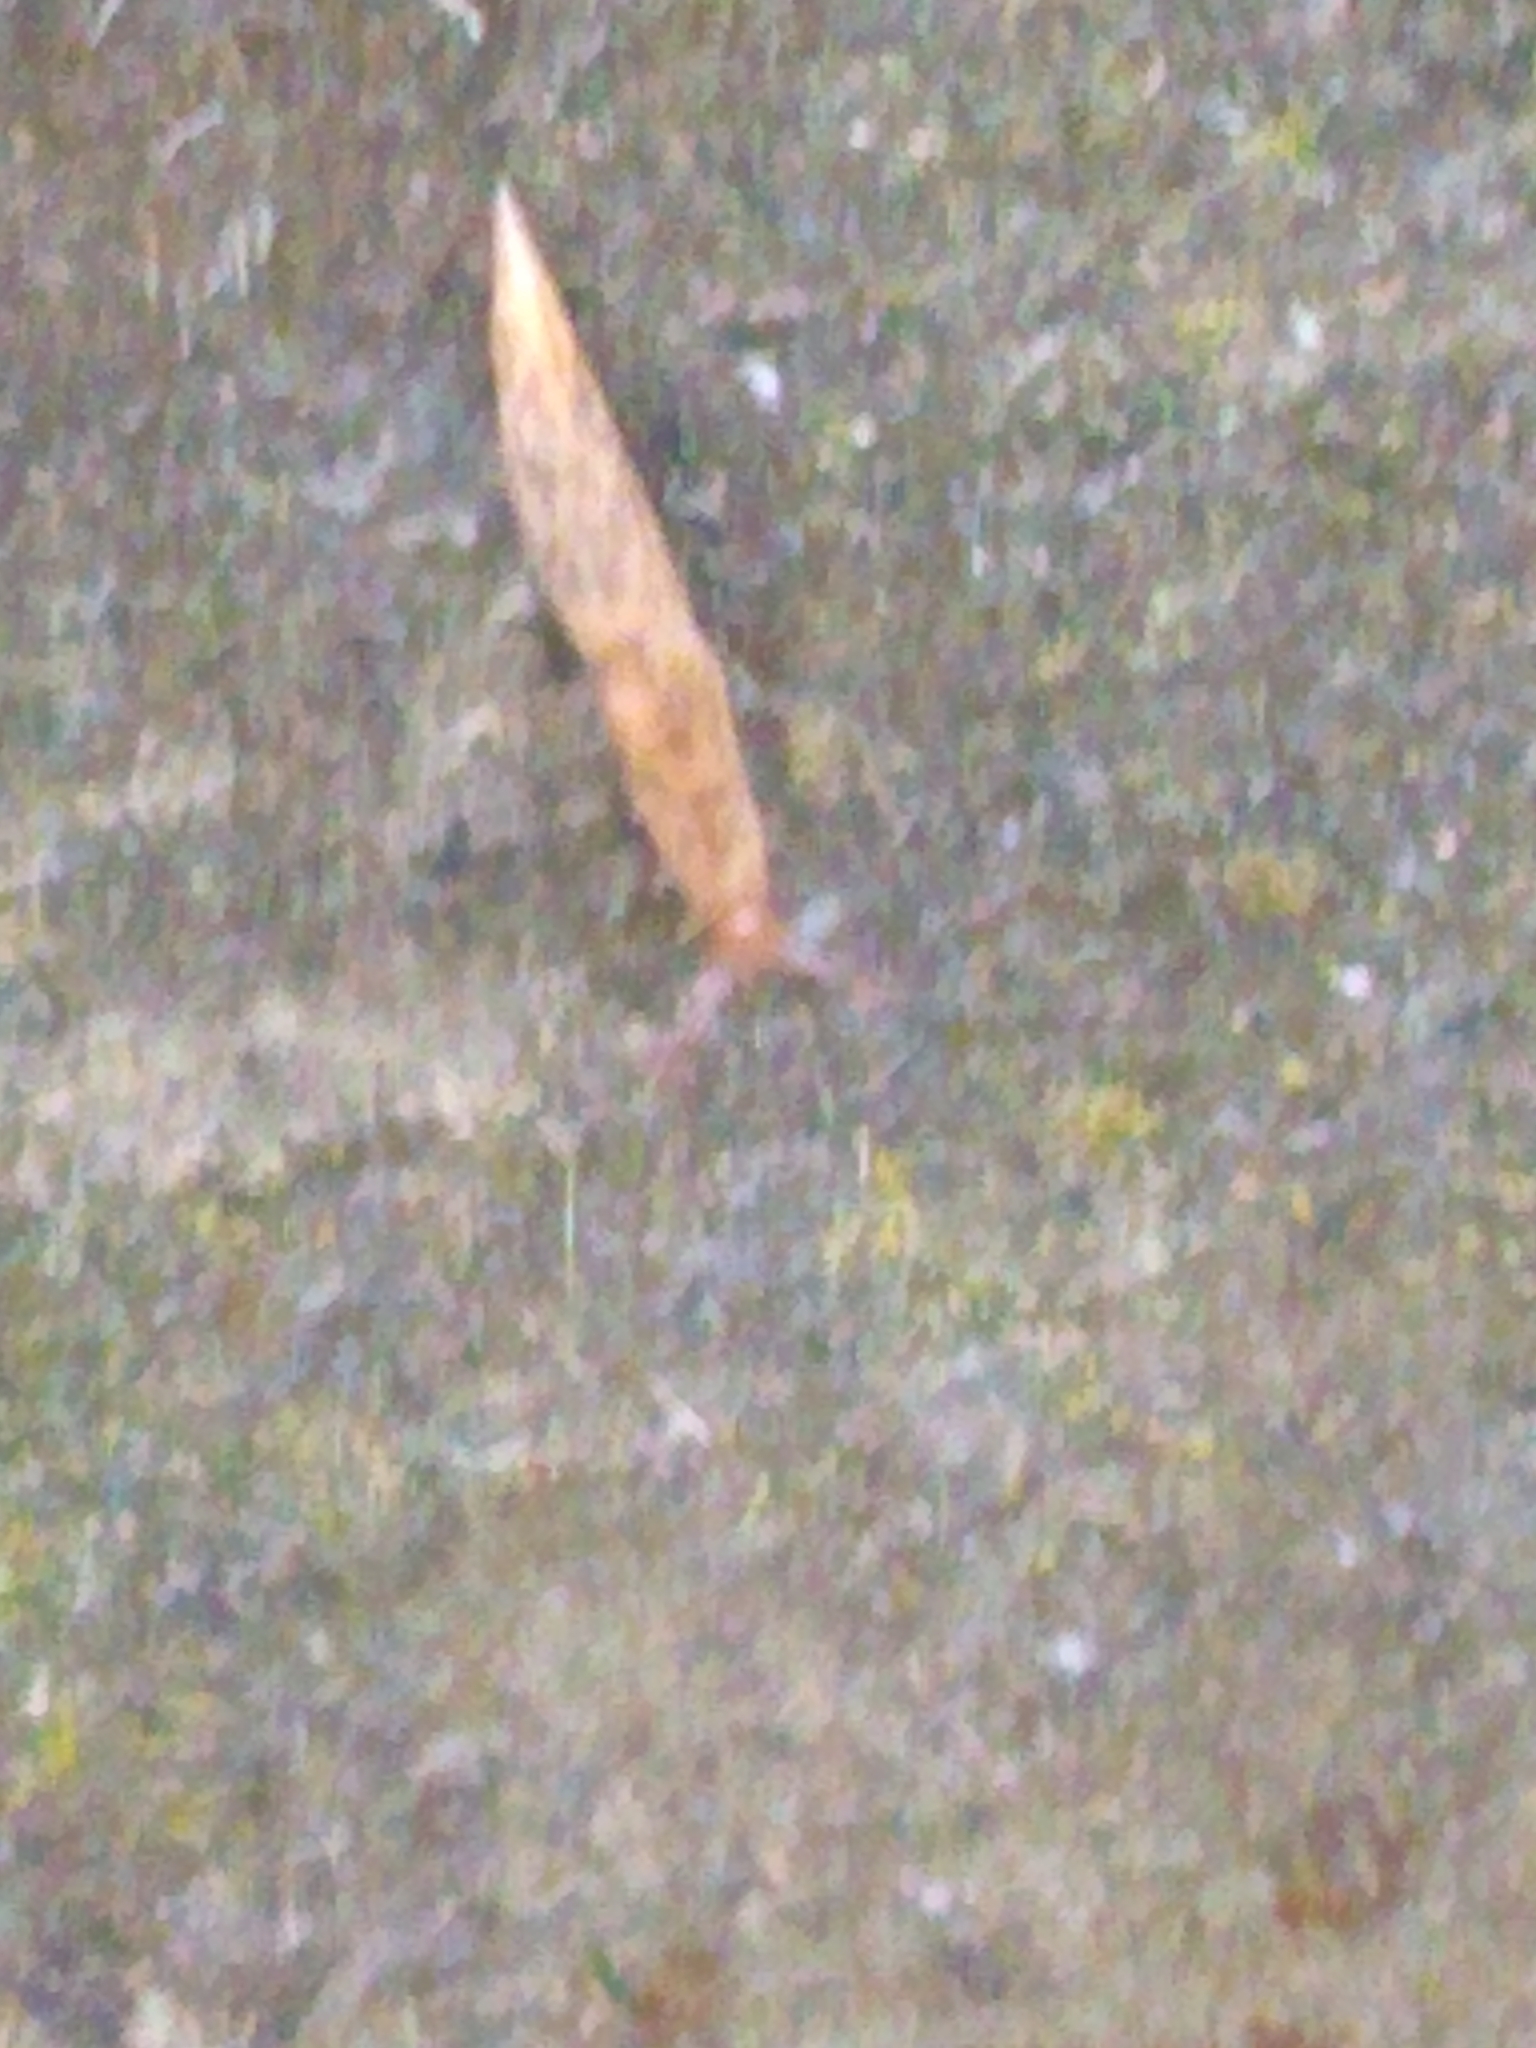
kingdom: Animalia
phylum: Mollusca
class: Gastropoda
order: Stylommatophora
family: Agriolimacidae
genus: Deroceras
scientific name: Deroceras reticulatum
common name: Gray field slug
